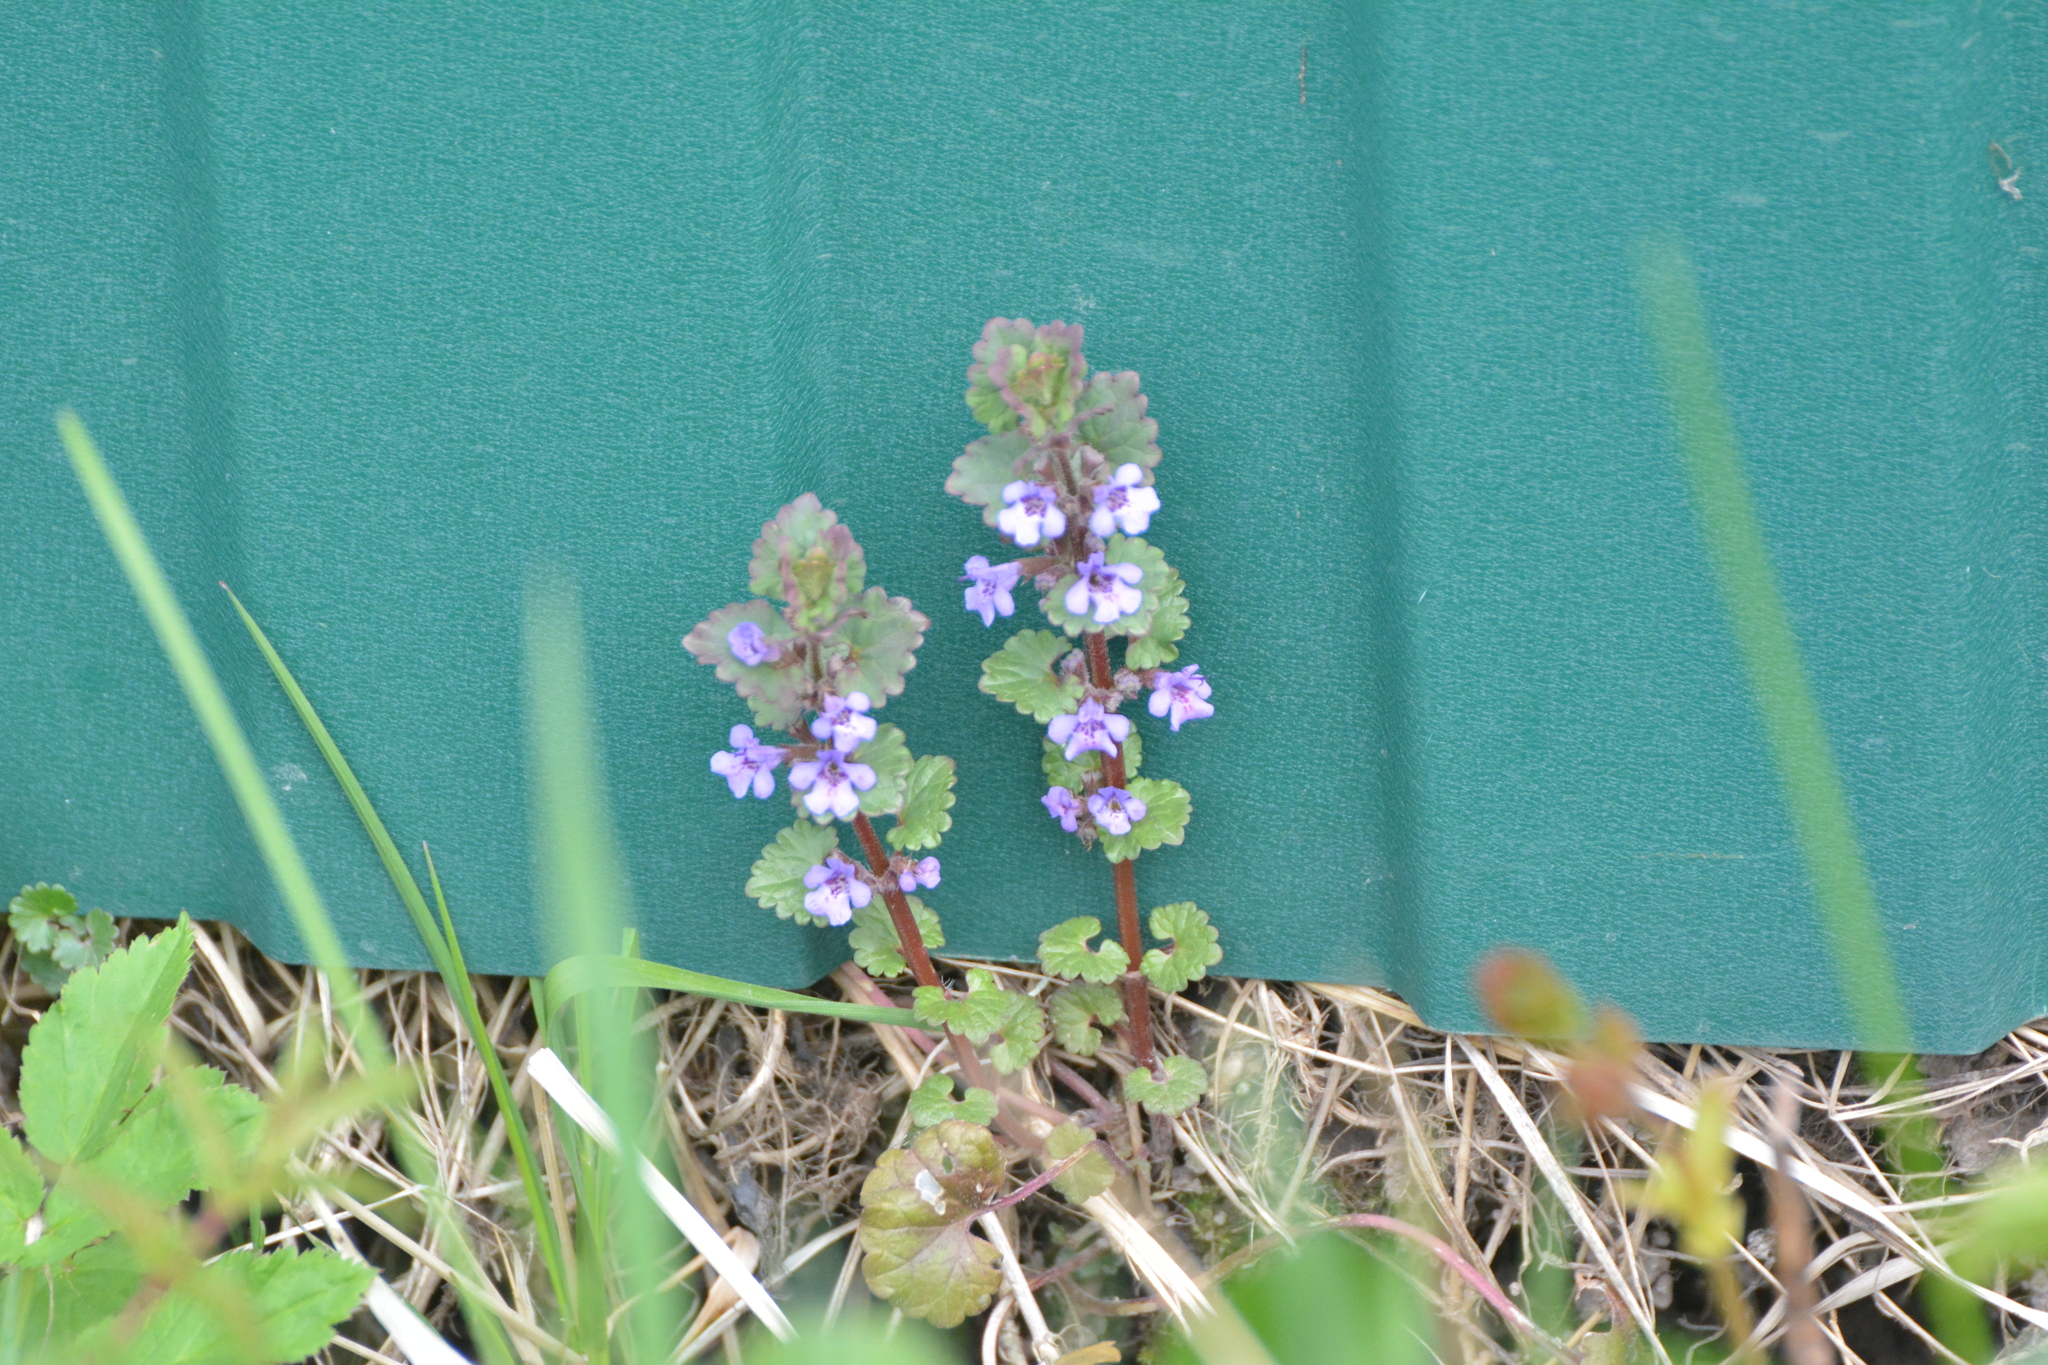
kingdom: Plantae
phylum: Tracheophyta
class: Magnoliopsida
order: Lamiales
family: Lamiaceae
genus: Glechoma
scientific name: Glechoma hederacea
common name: Ground ivy
